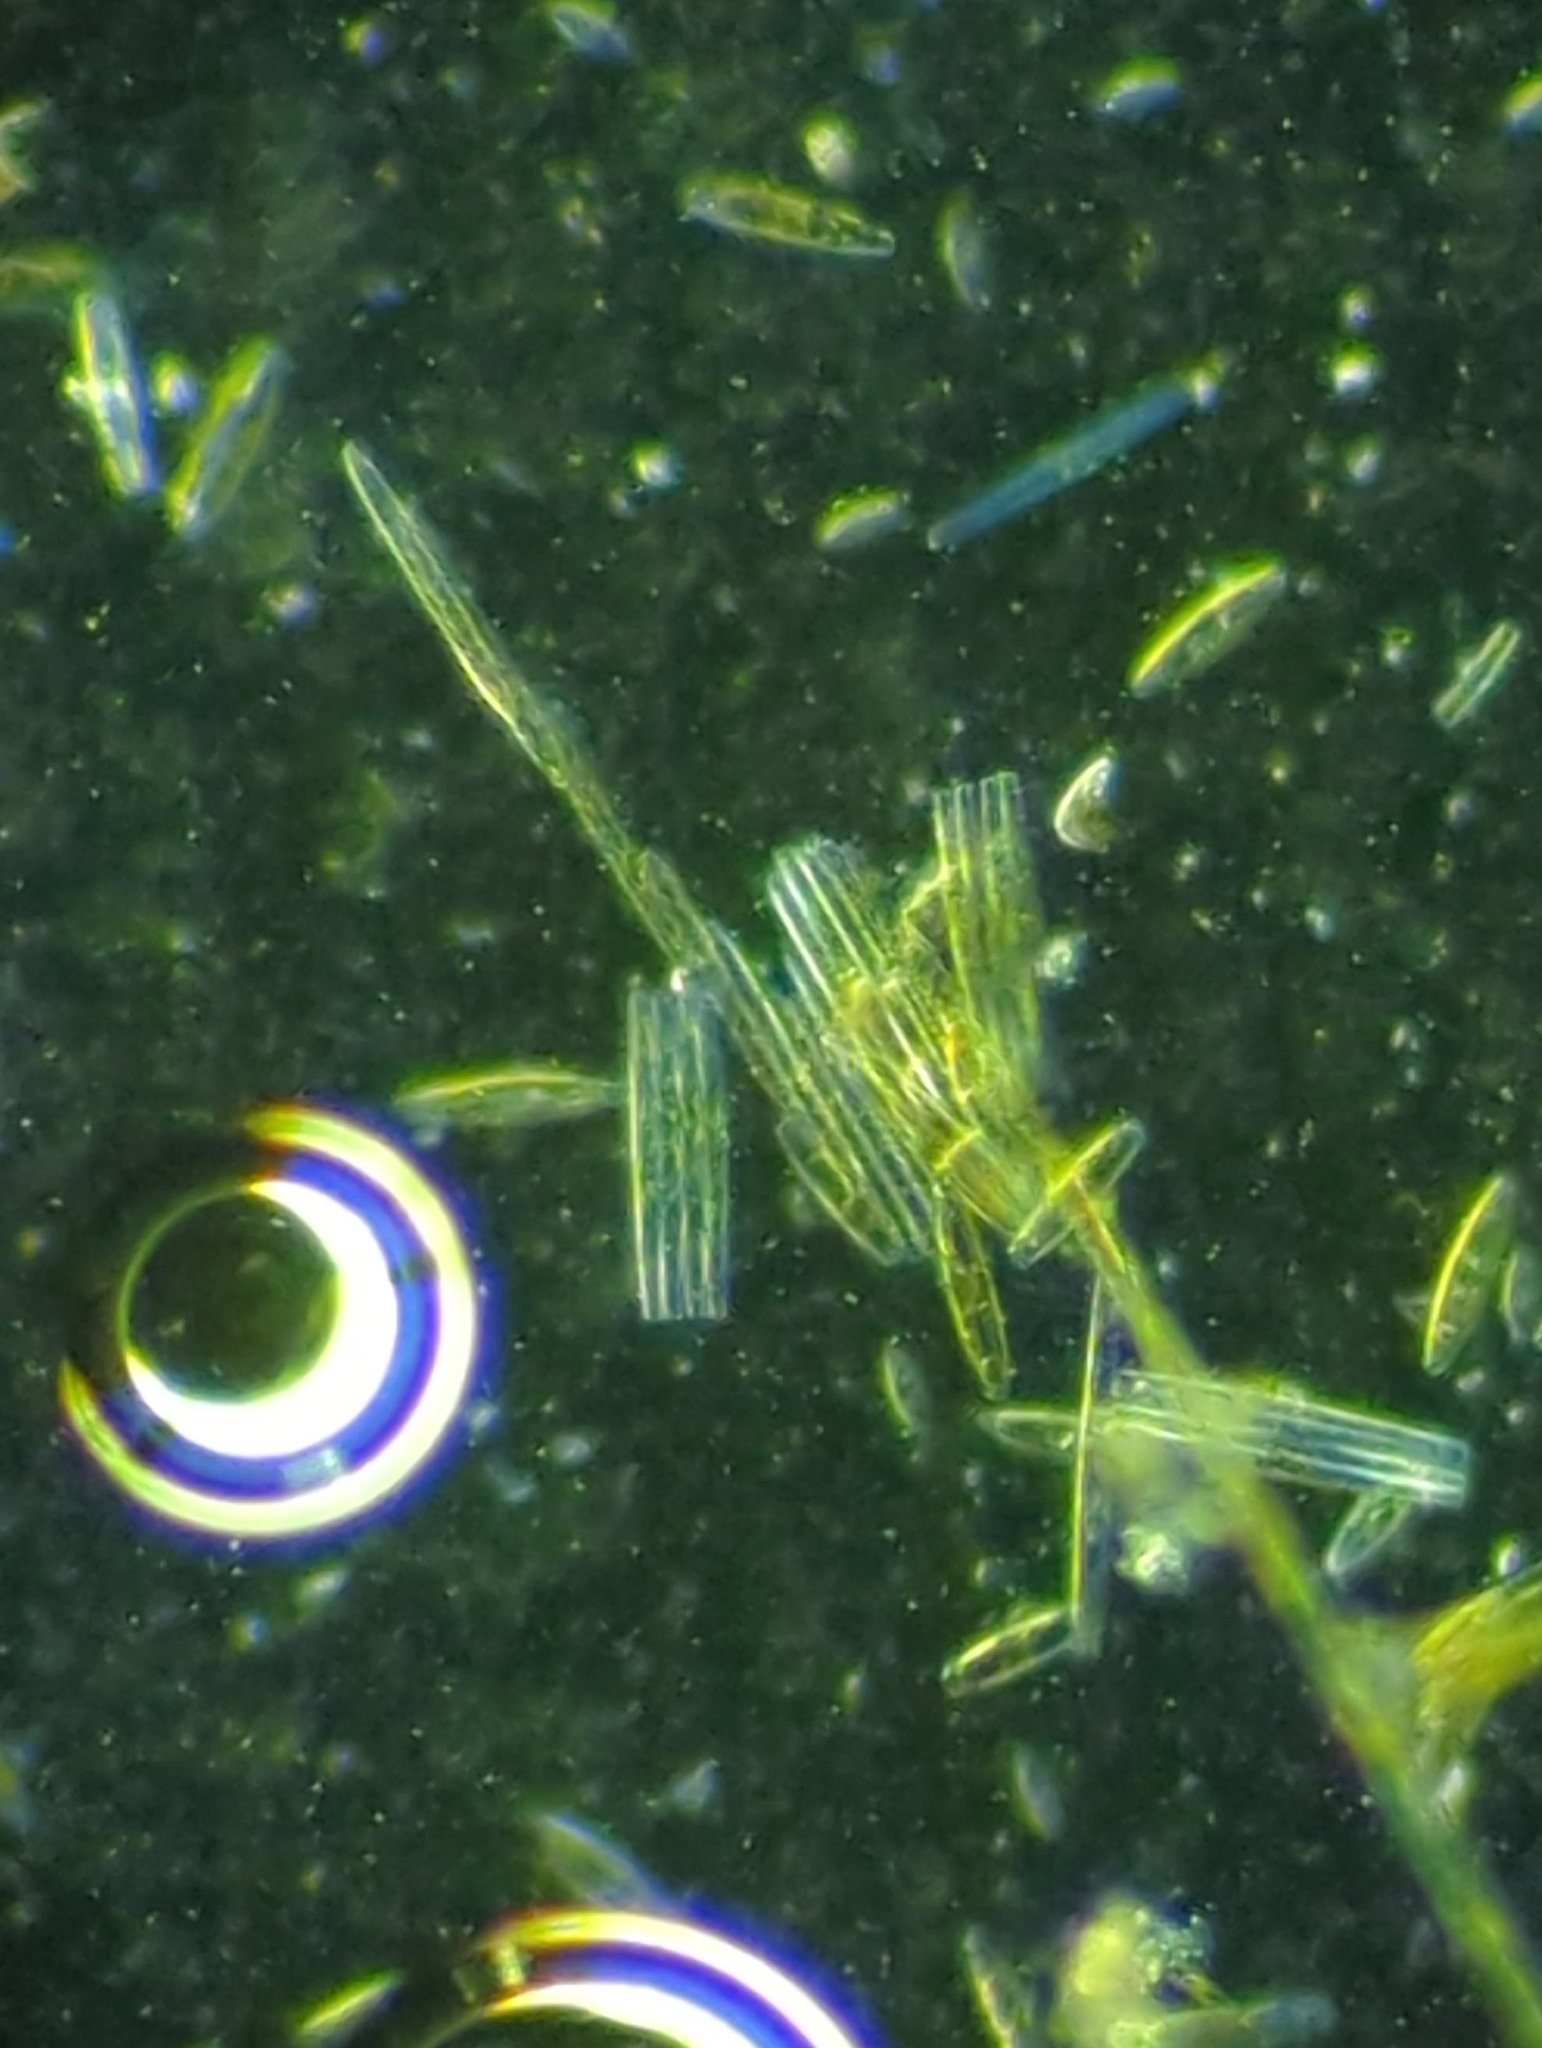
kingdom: Chromista
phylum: Ochrophyta
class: Bacillariophyceae
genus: Vibrio
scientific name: Vibrio paxillifer
